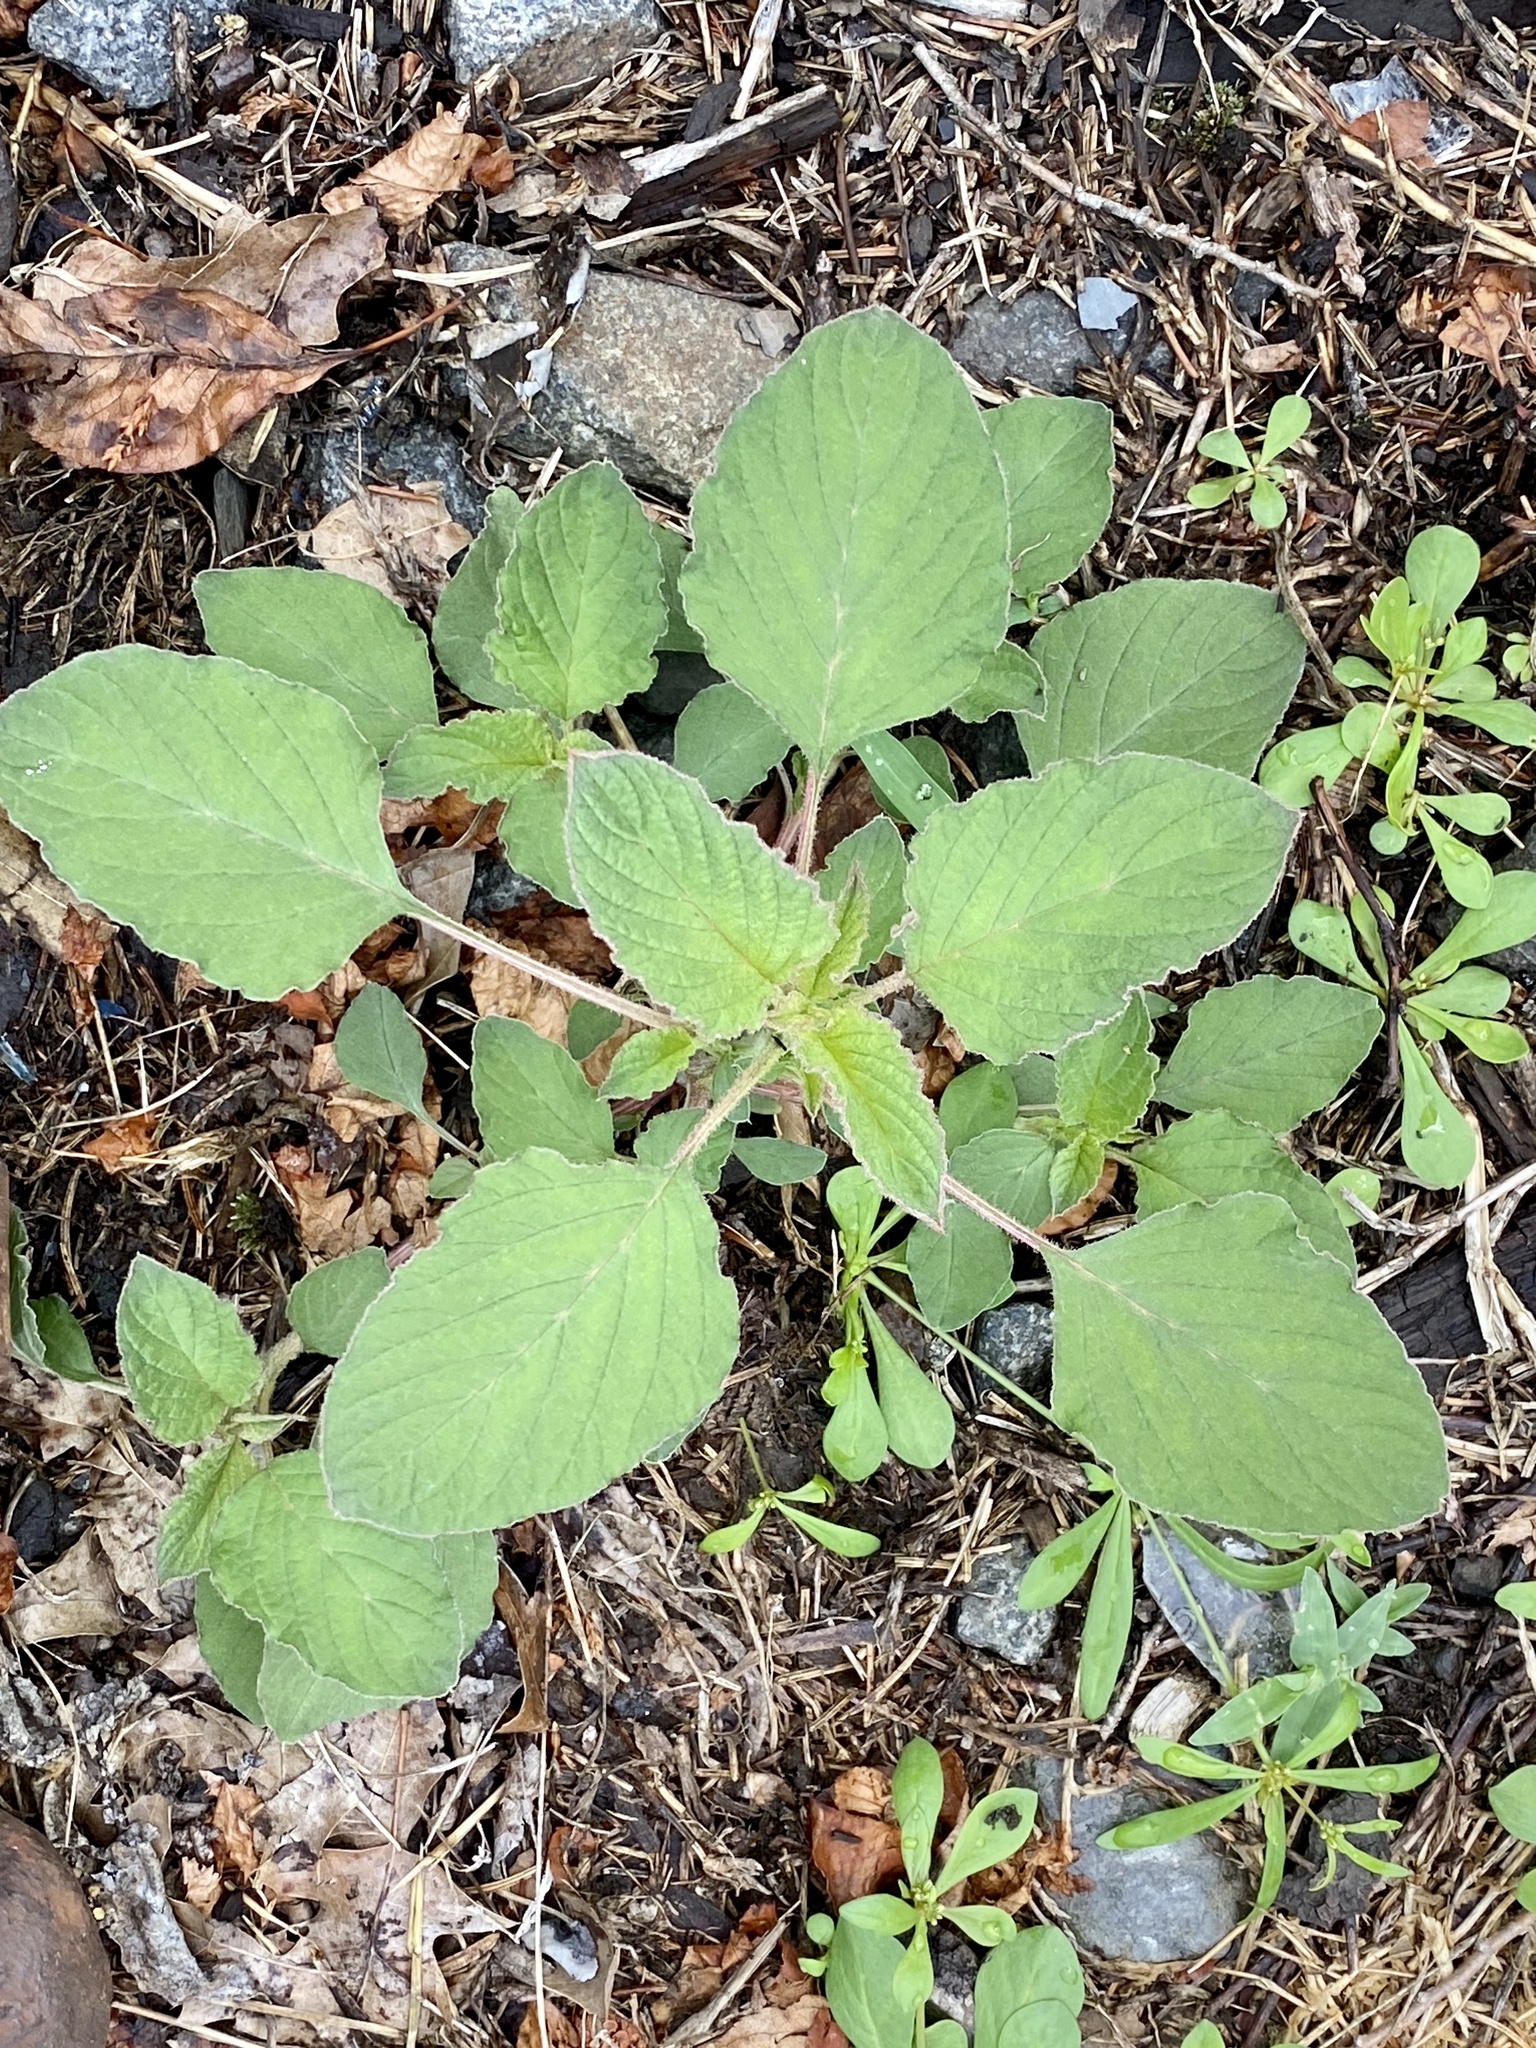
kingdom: Plantae
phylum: Tracheophyta
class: Magnoliopsida
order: Caryophyllales
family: Amaranthaceae
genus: Amaranthus
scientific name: Amaranthus retroflexus
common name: Redroot amaranth
